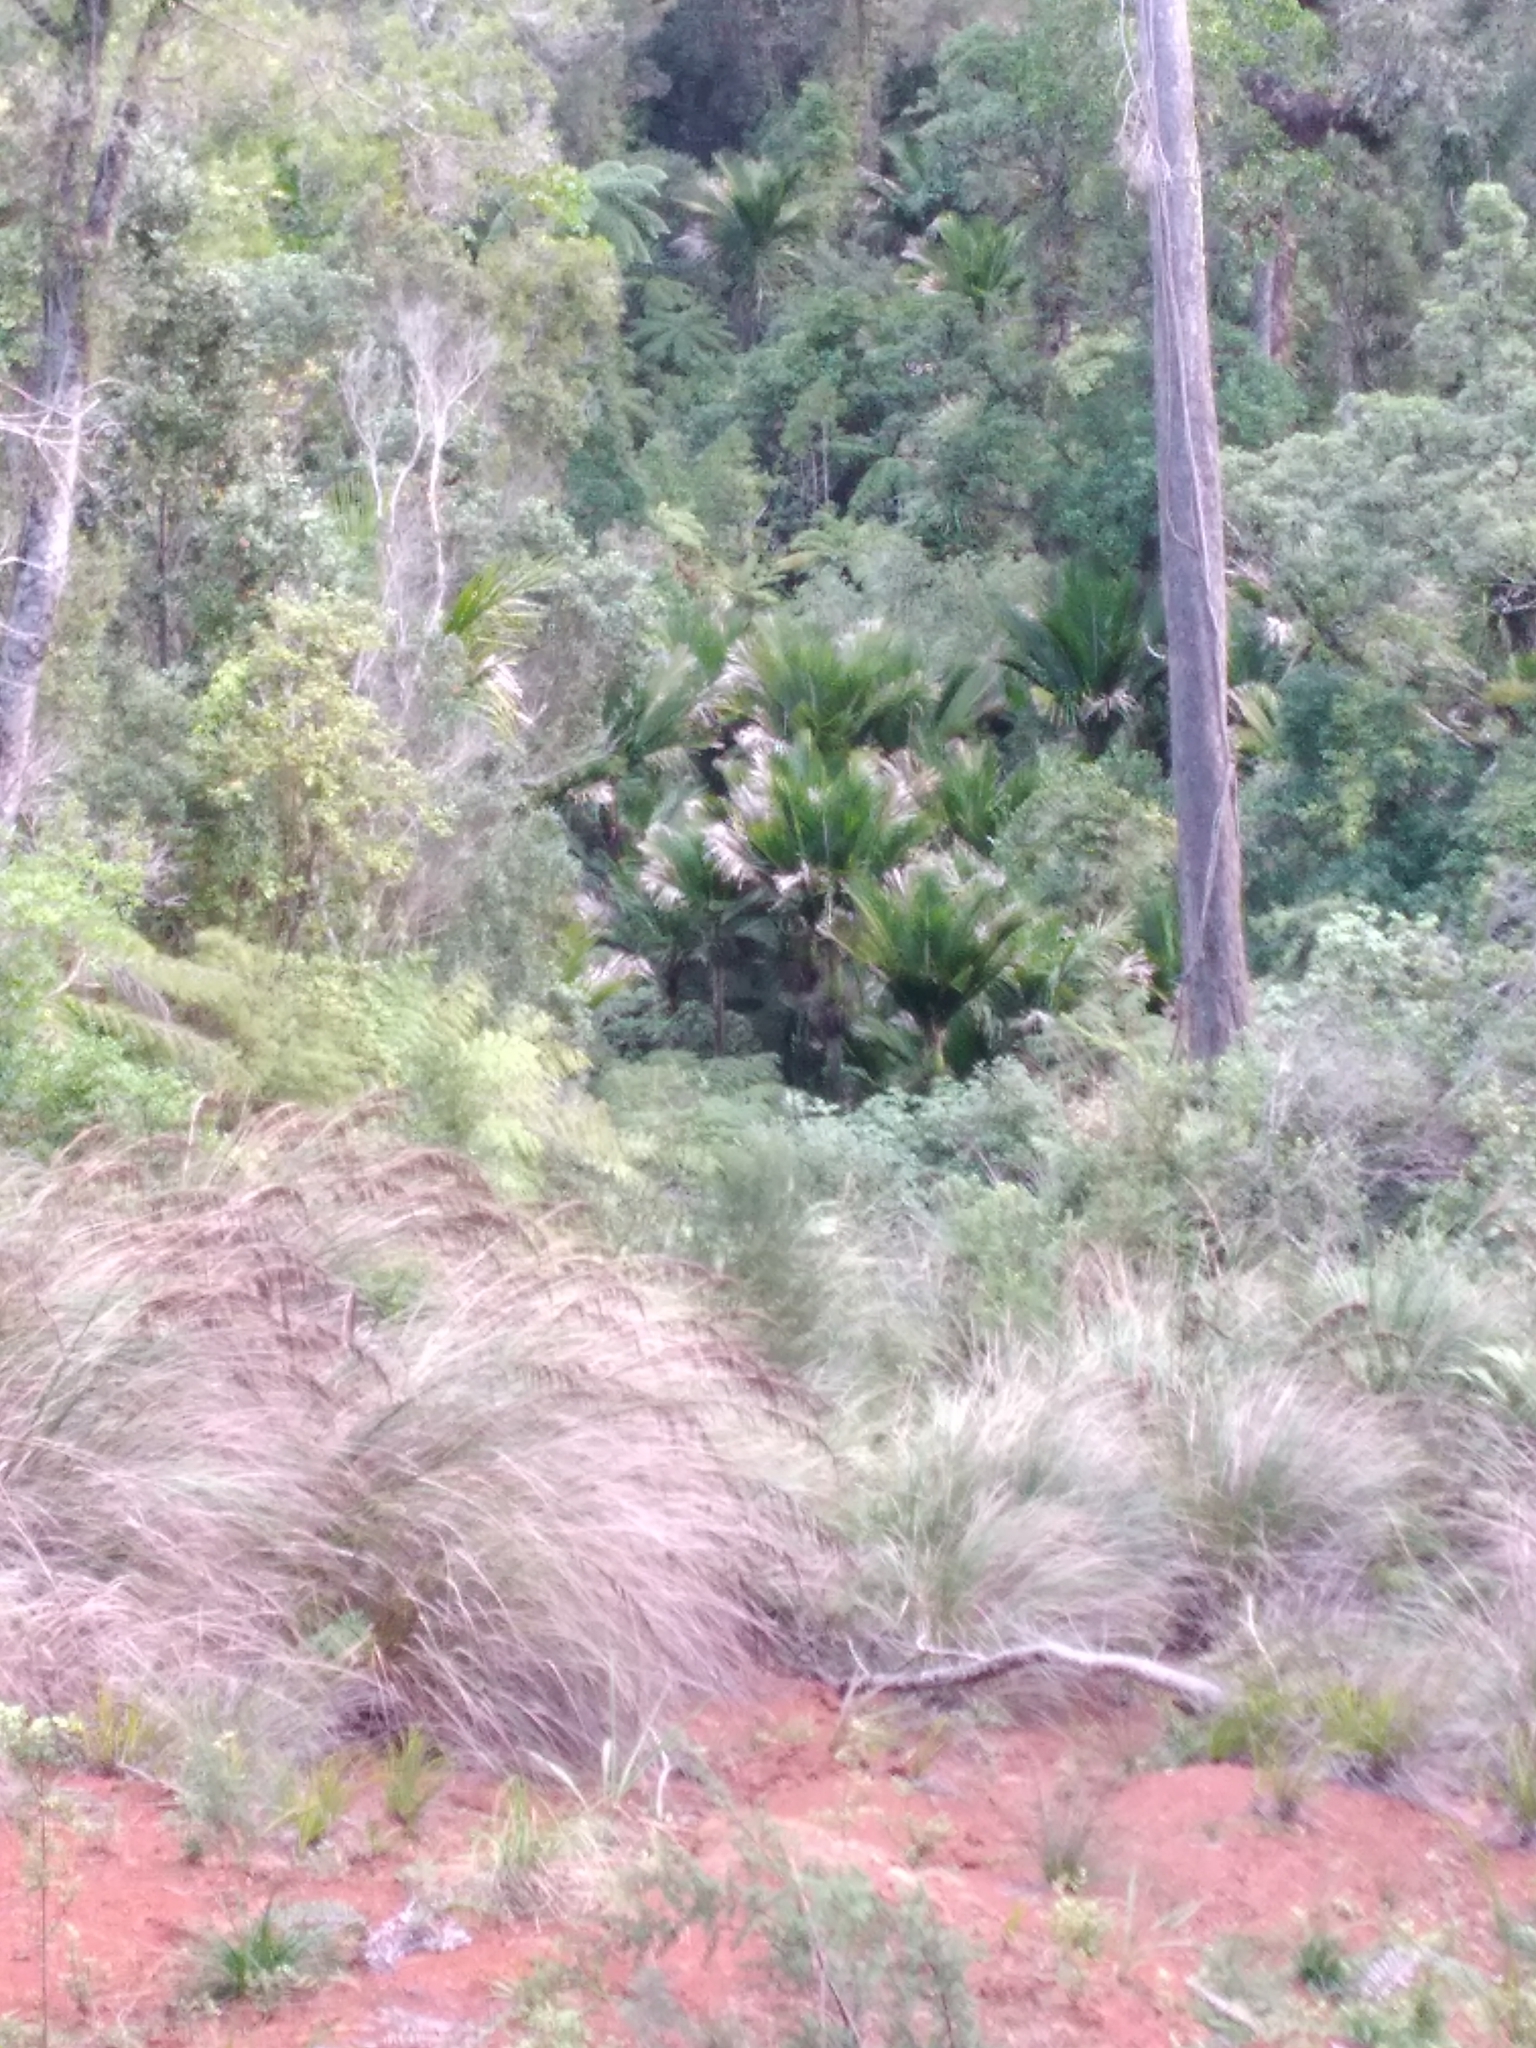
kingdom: Plantae
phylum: Tracheophyta
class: Liliopsida
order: Arecales
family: Arecaceae
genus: Rhopalostylis
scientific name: Rhopalostylis sapida
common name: Feather-duster palm
